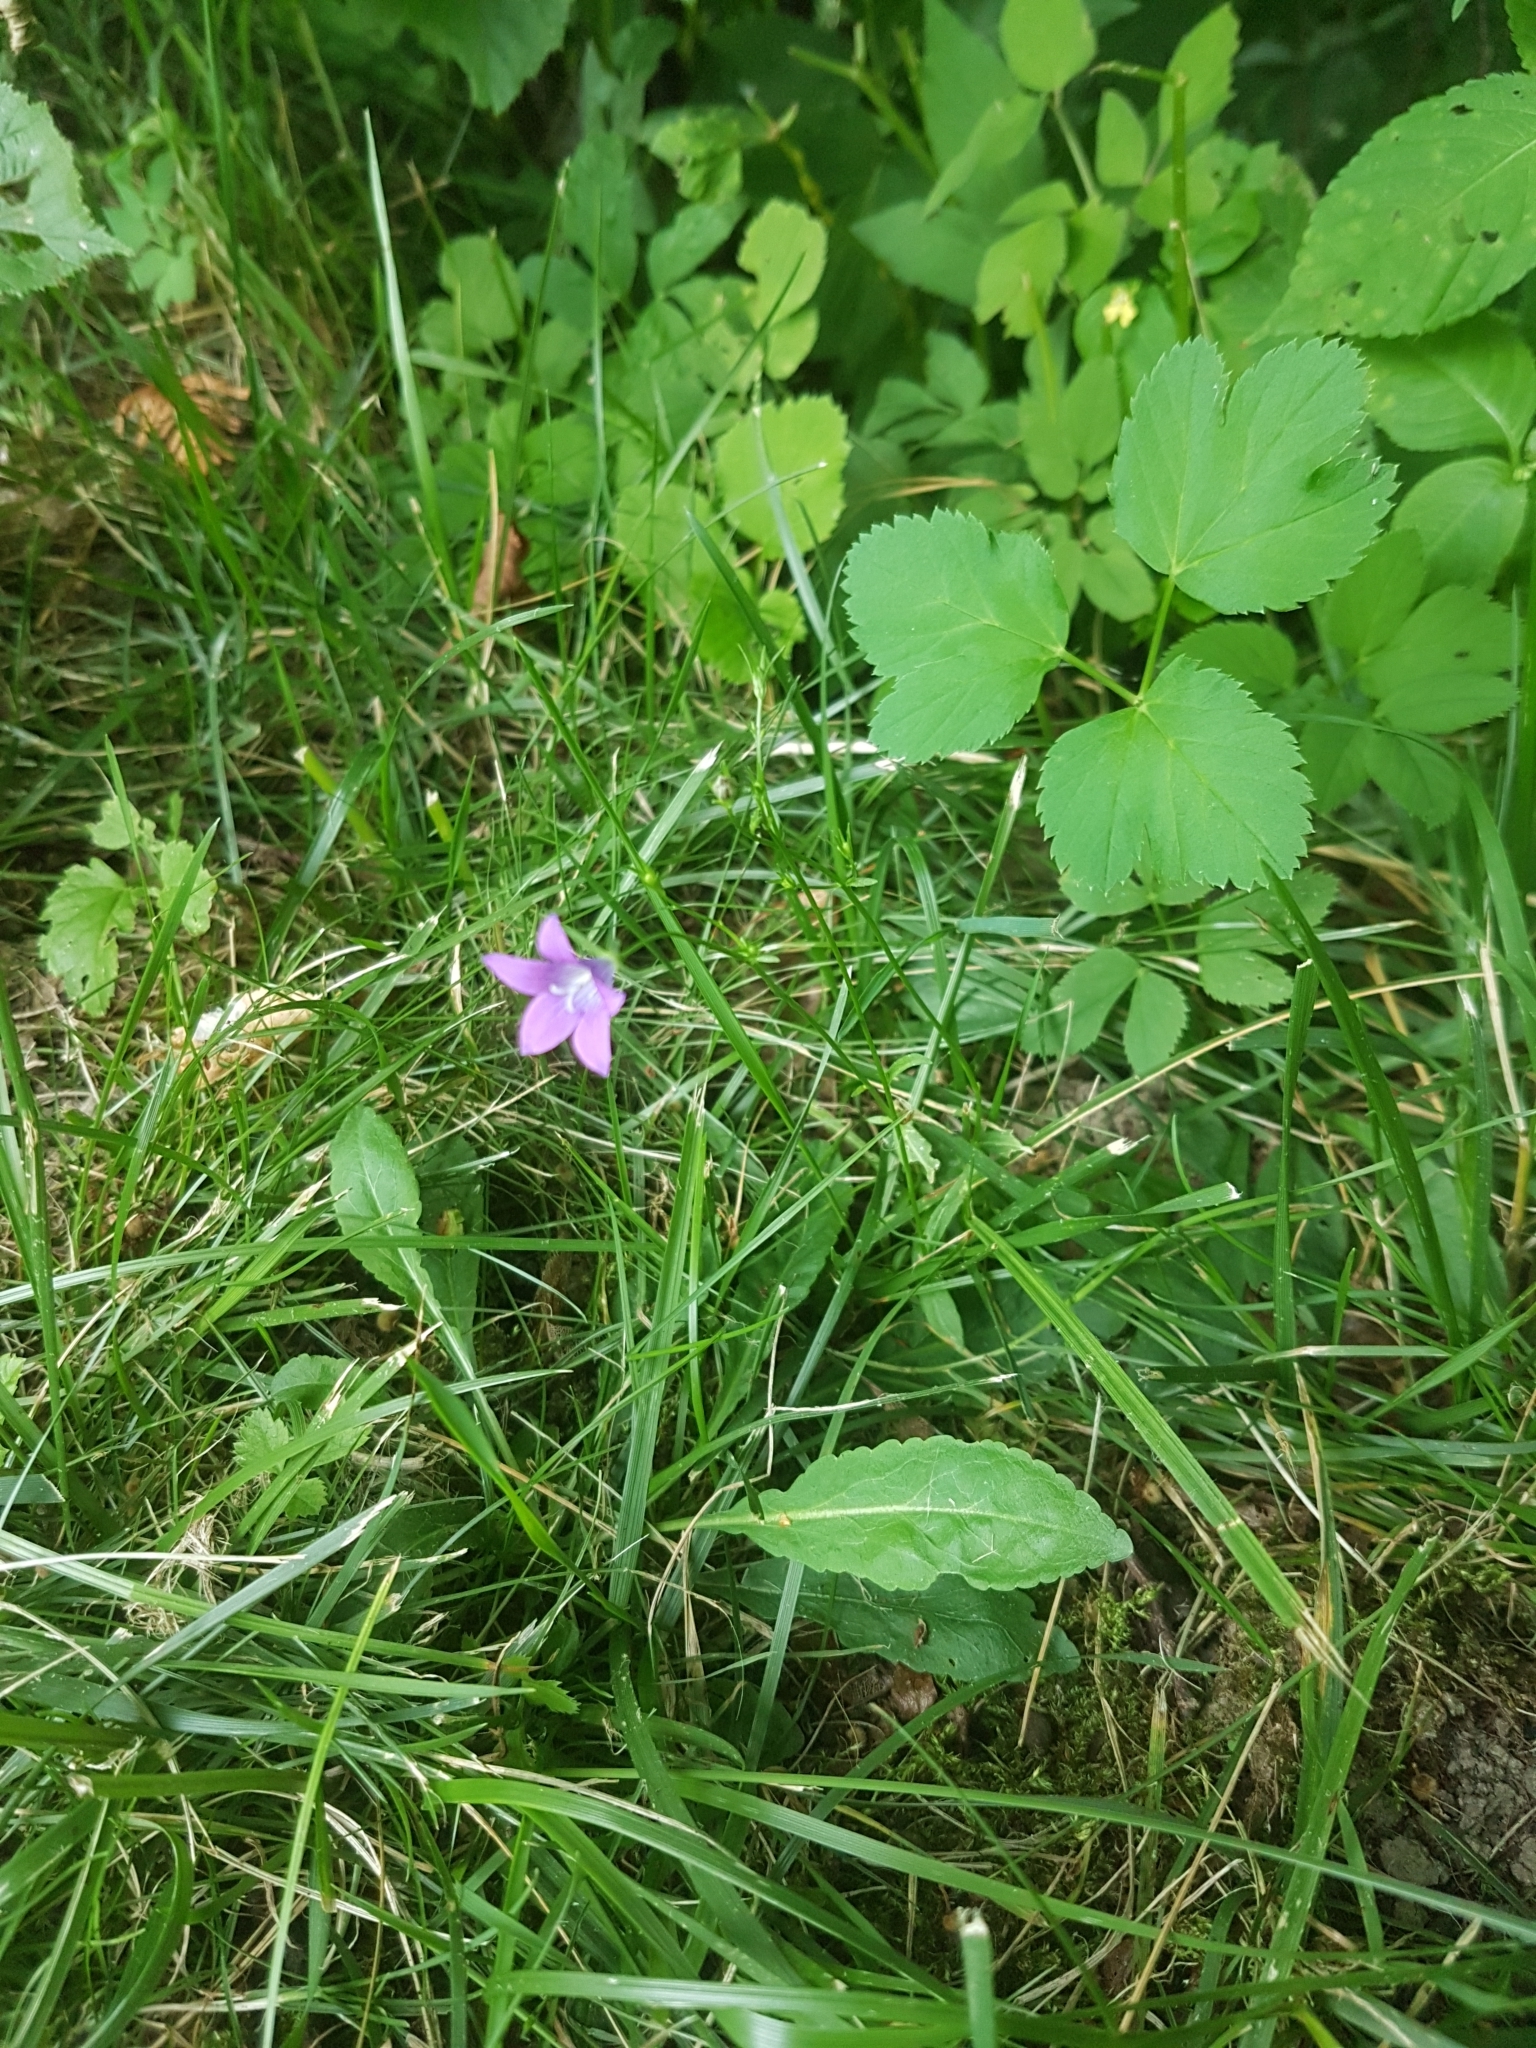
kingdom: Plantae
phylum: Tracheophyta
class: Magnoliopsida
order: Asterales
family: Campanulaceae
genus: Campanula
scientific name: Campanula patula
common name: Spreading bellflower
